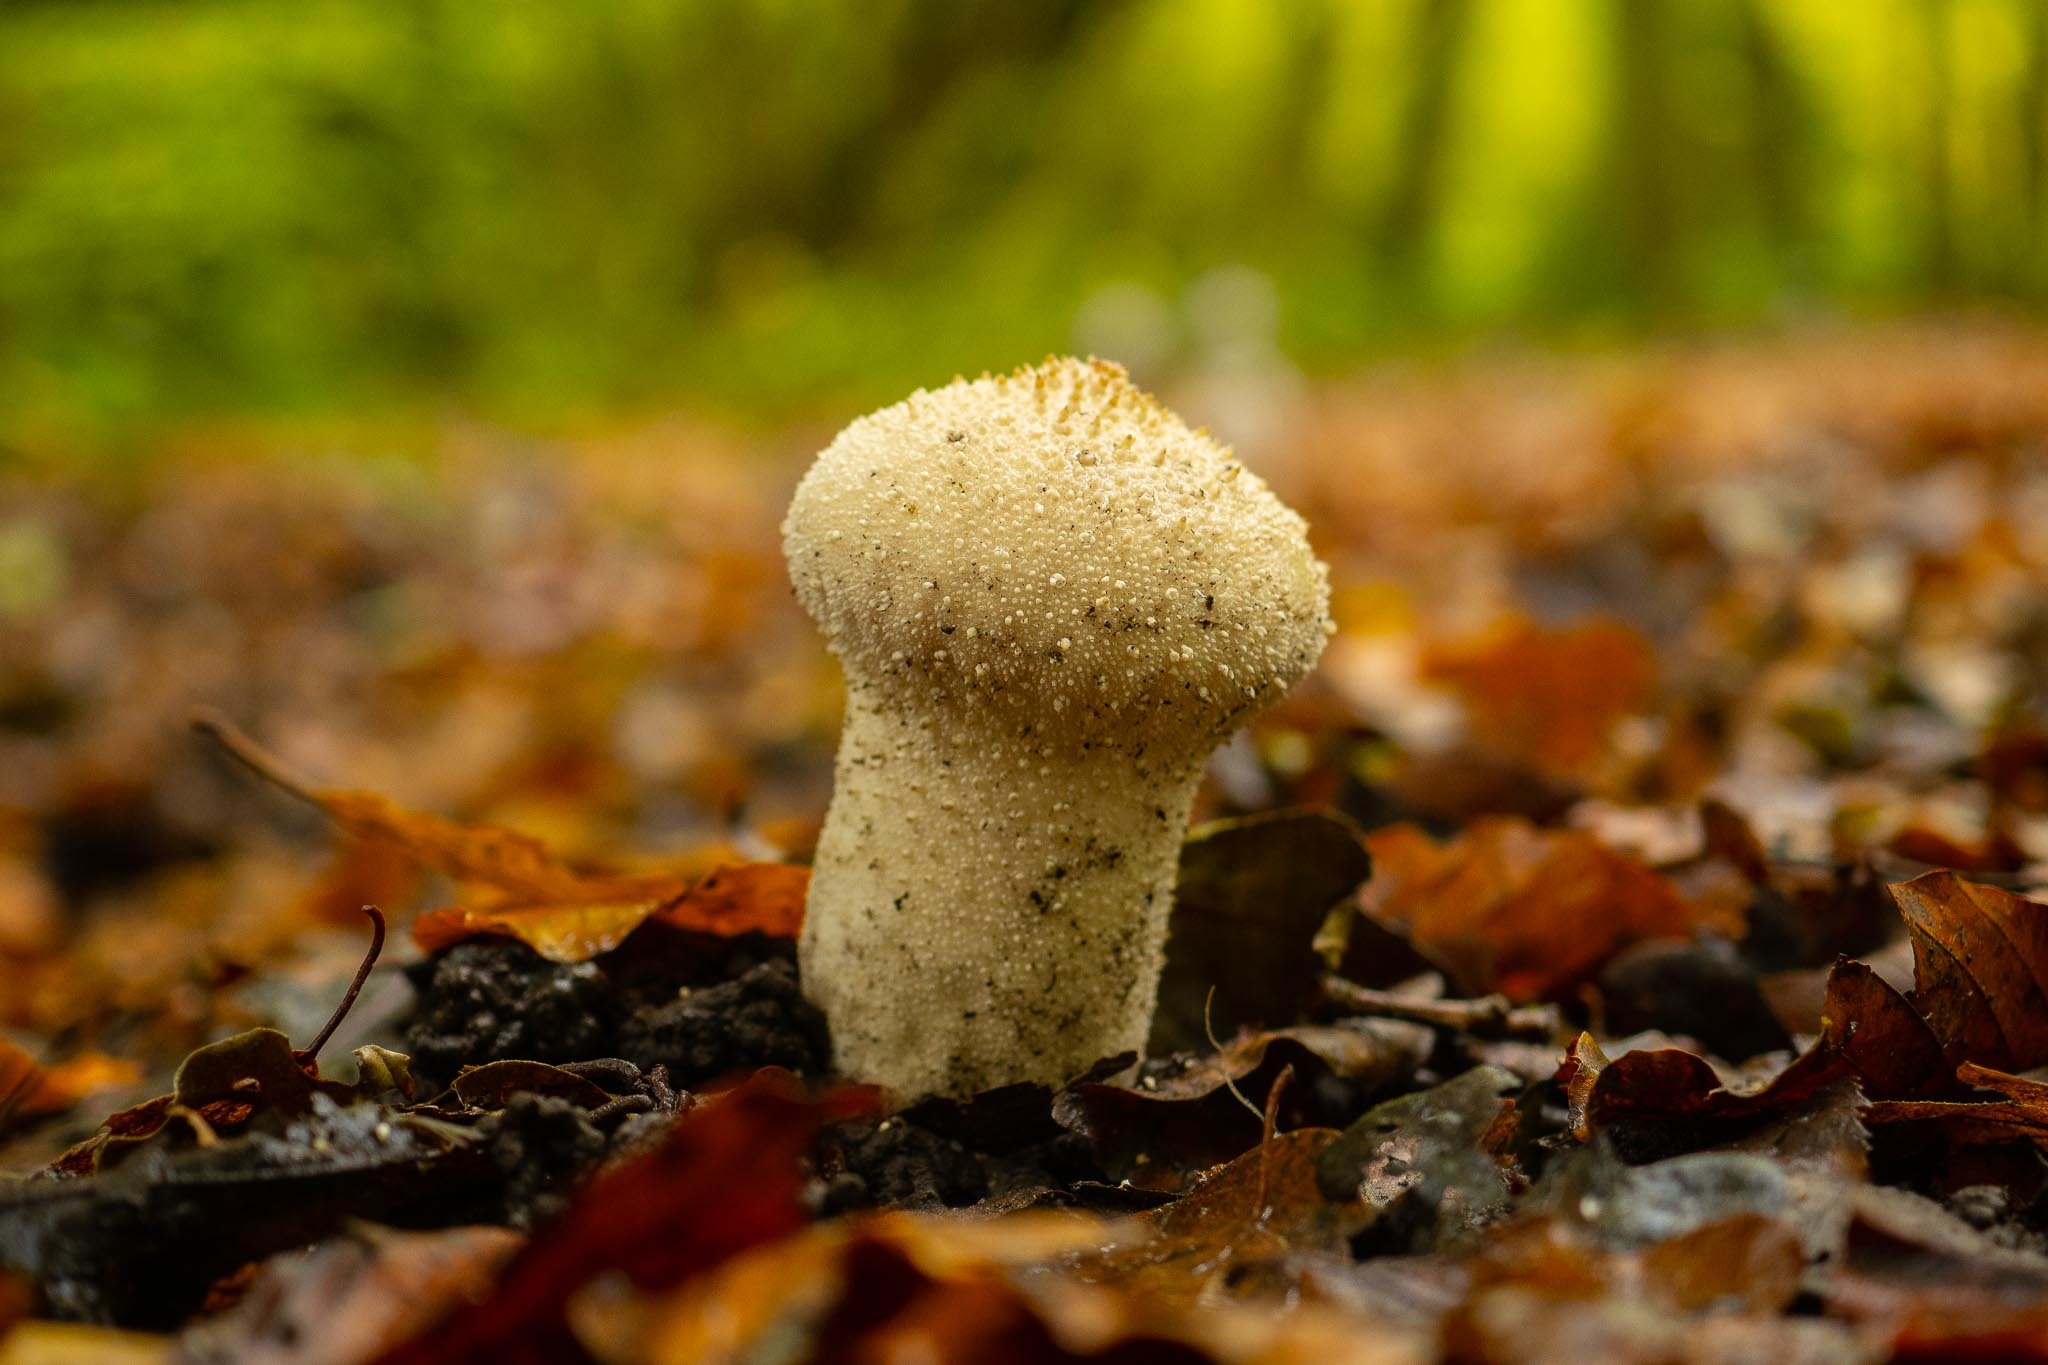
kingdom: Fungi
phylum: Basidiomycota
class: Agaricomycetes
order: Agaricales
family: Lycoperdaceae
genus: Lycoperdon
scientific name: Lycoperdon perlatum
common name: Common puffball
